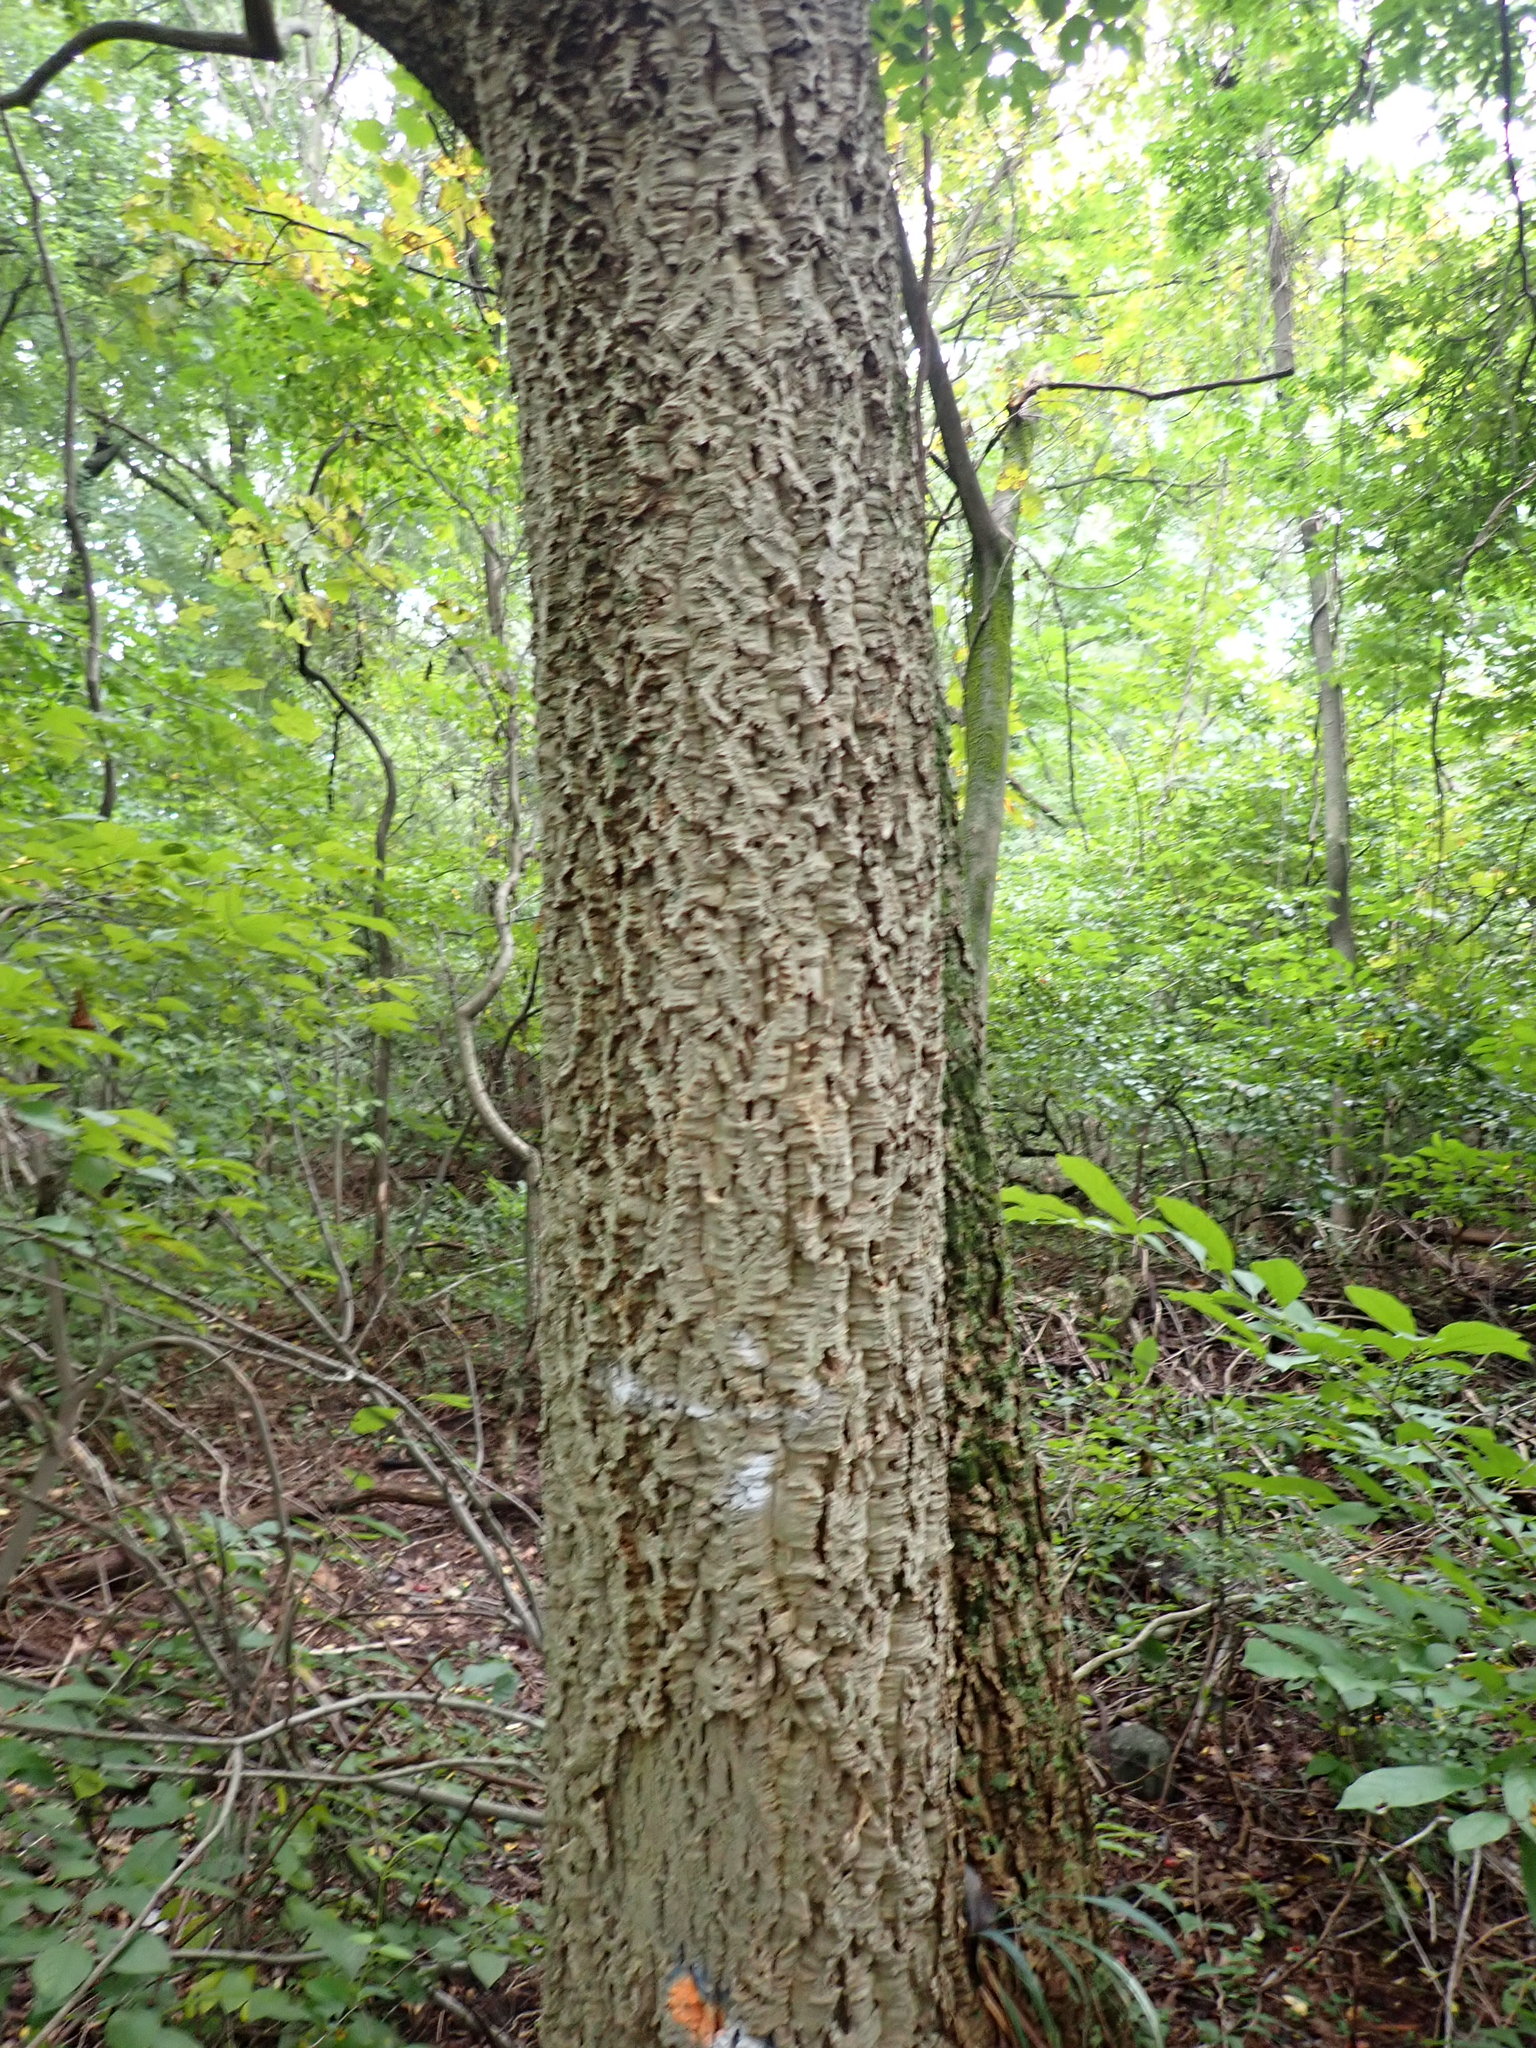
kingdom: Plantae
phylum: Tracheophyta
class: Magnoliopsida
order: Sapindales
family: Rutaceae
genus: Phellodendron
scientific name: Phellodendron amurense
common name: Amur corktree
